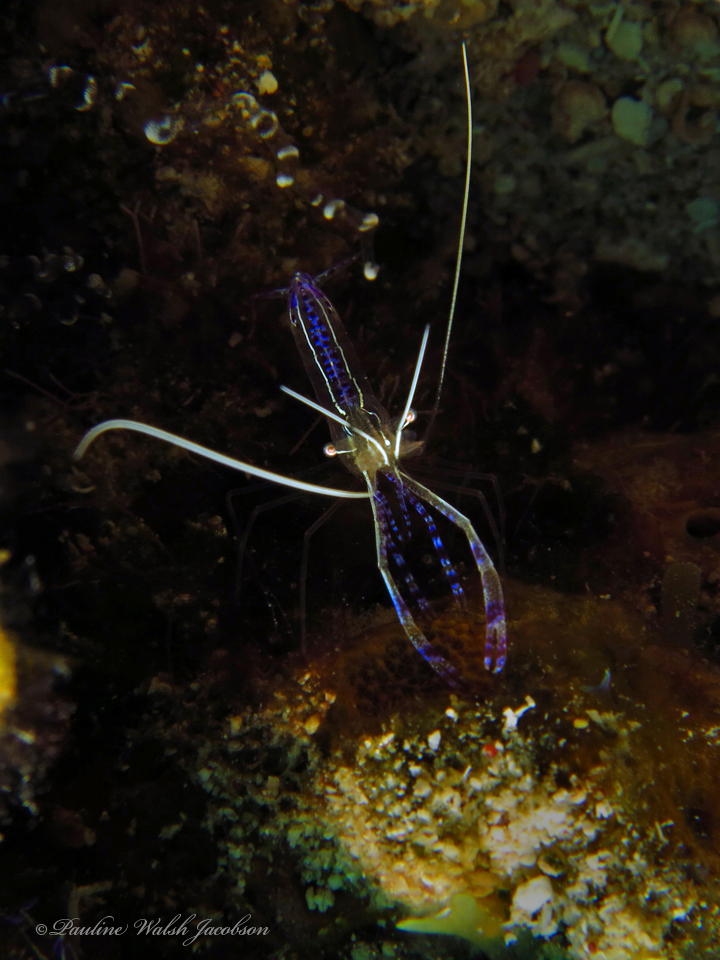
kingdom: Animalia
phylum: Arthropoda
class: Malacostraca
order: Decapoda
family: Palaemonidae
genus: Ancylomenes
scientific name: Ancylomenes pedersoni
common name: Pederson's cleaning shrimp
